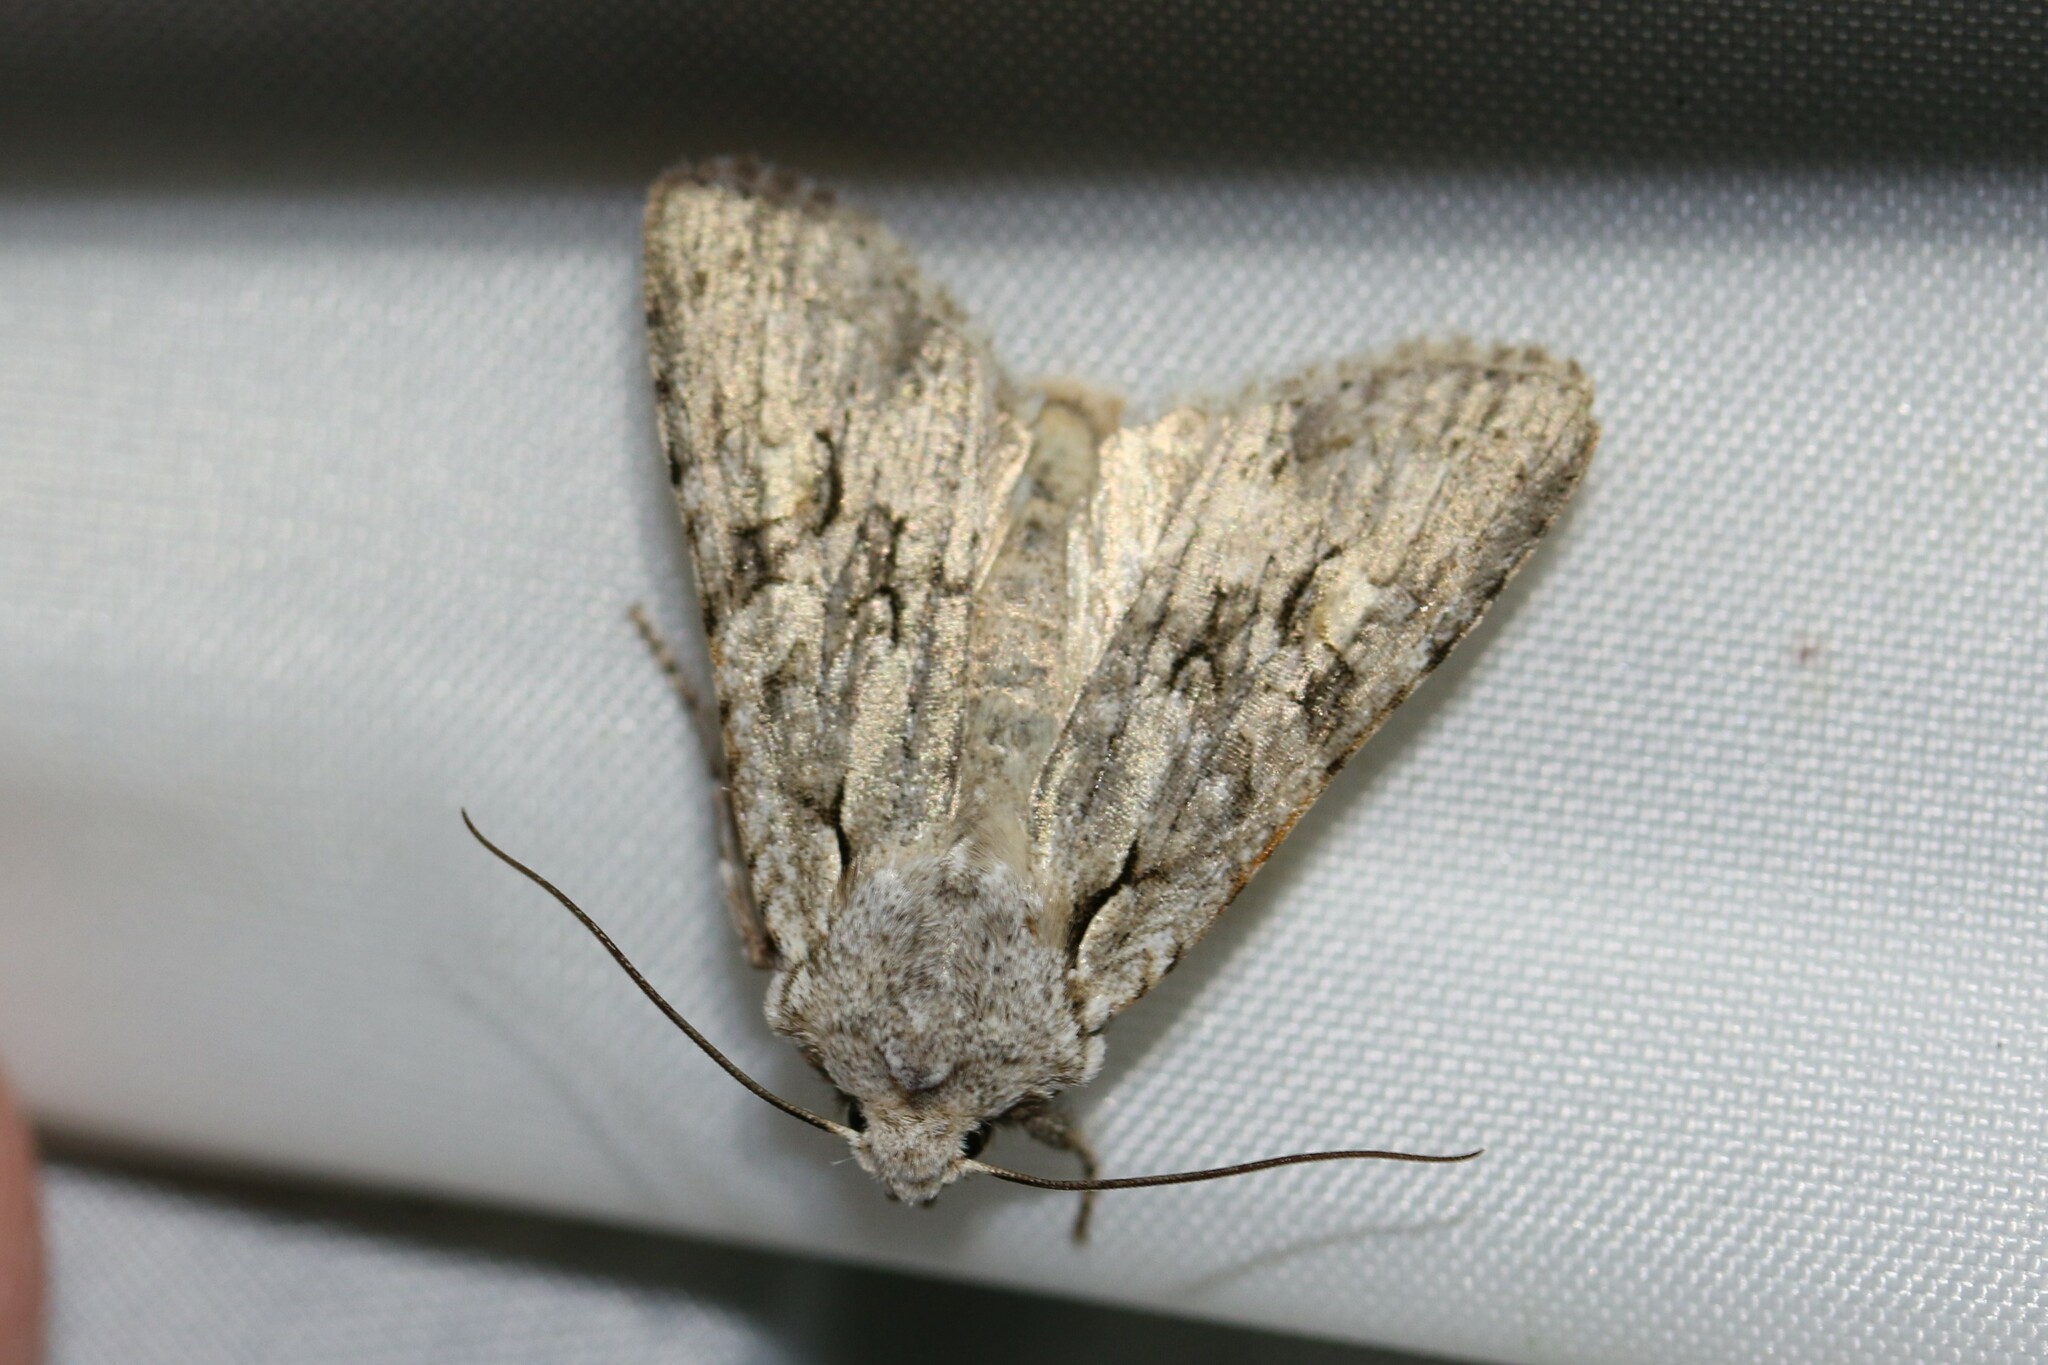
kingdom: Animalia
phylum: Arthropoda
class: Insecta
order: Lepidoptera
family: Noctuidae
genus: Lithophane
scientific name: Lithophane ornitopus
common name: Grey shoulder-knot
